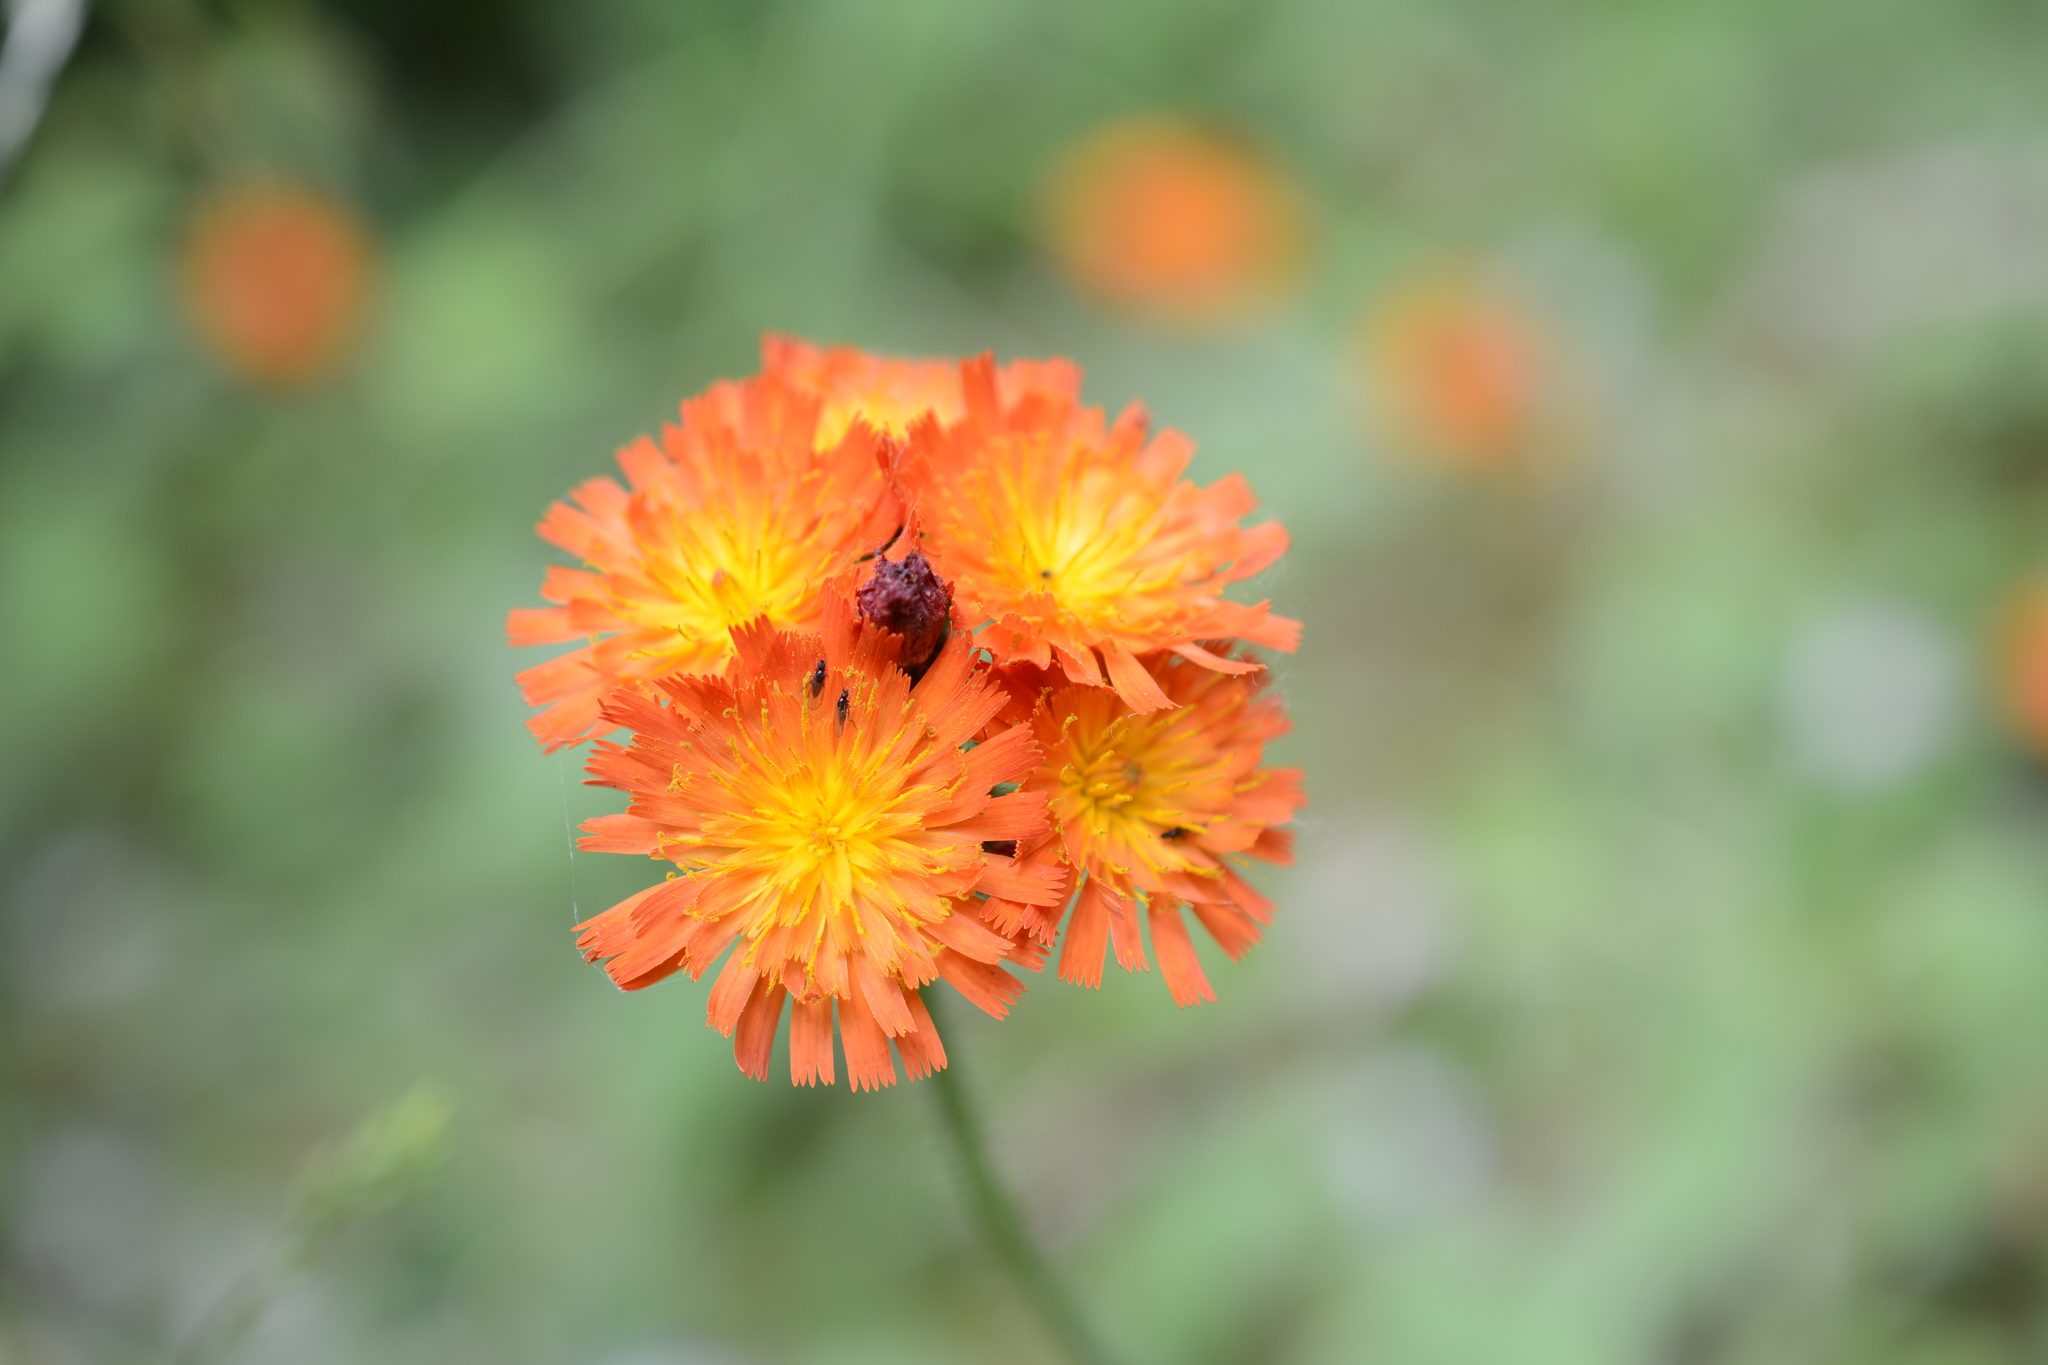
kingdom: Plantae
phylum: Tracheophyta
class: Magnoliopsida
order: Asterales
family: Asteraceae
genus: Pilosella
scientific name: Pilosella aurantiaca
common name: Fox-and-cubs
